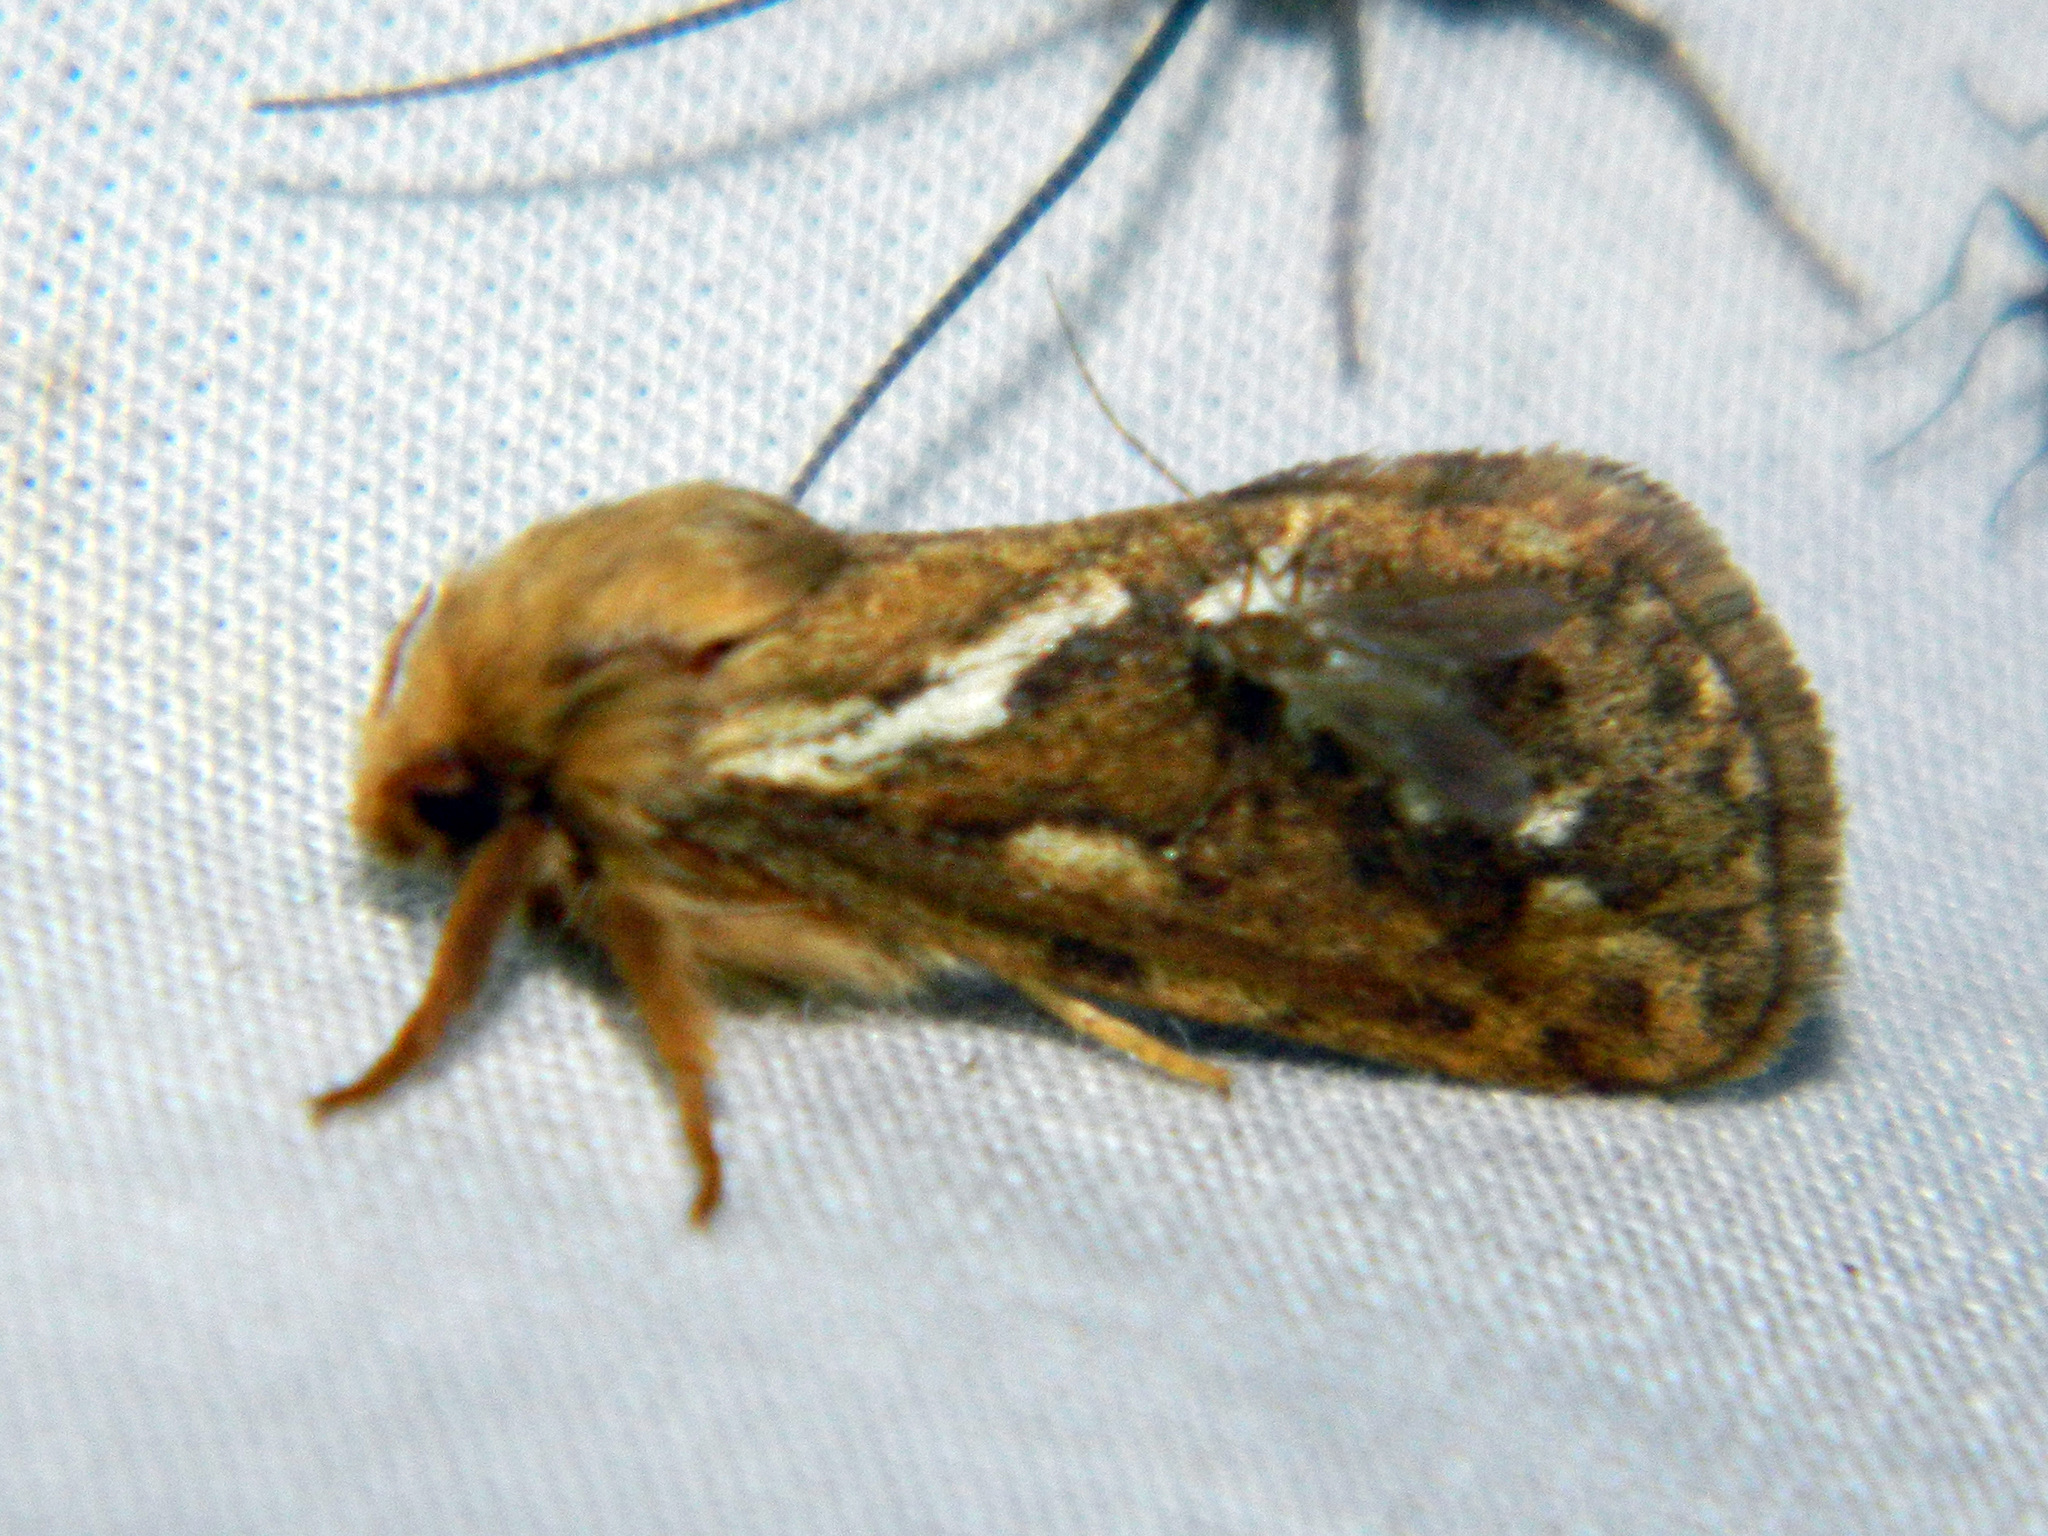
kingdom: Animalia
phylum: Arthropoda
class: Insecta
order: Lepidoptera
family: Hepialidae
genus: Korscheltellus
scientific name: Korscheltellus lupulina
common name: Common swift
